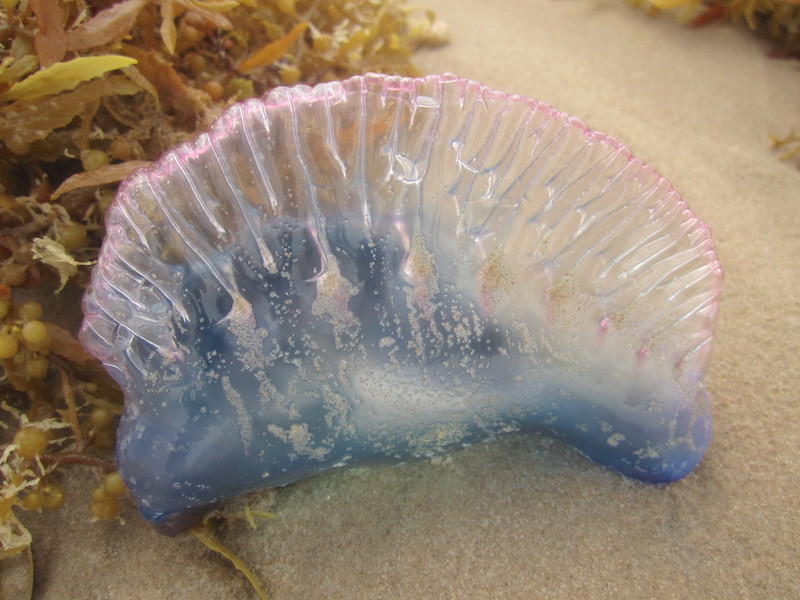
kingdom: Animalia
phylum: Cnidaria
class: Hydrozoa
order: Siphonophorae
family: Physaliidae
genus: Physalia
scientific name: Physalia physalis
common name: Portuguese man-of-war
